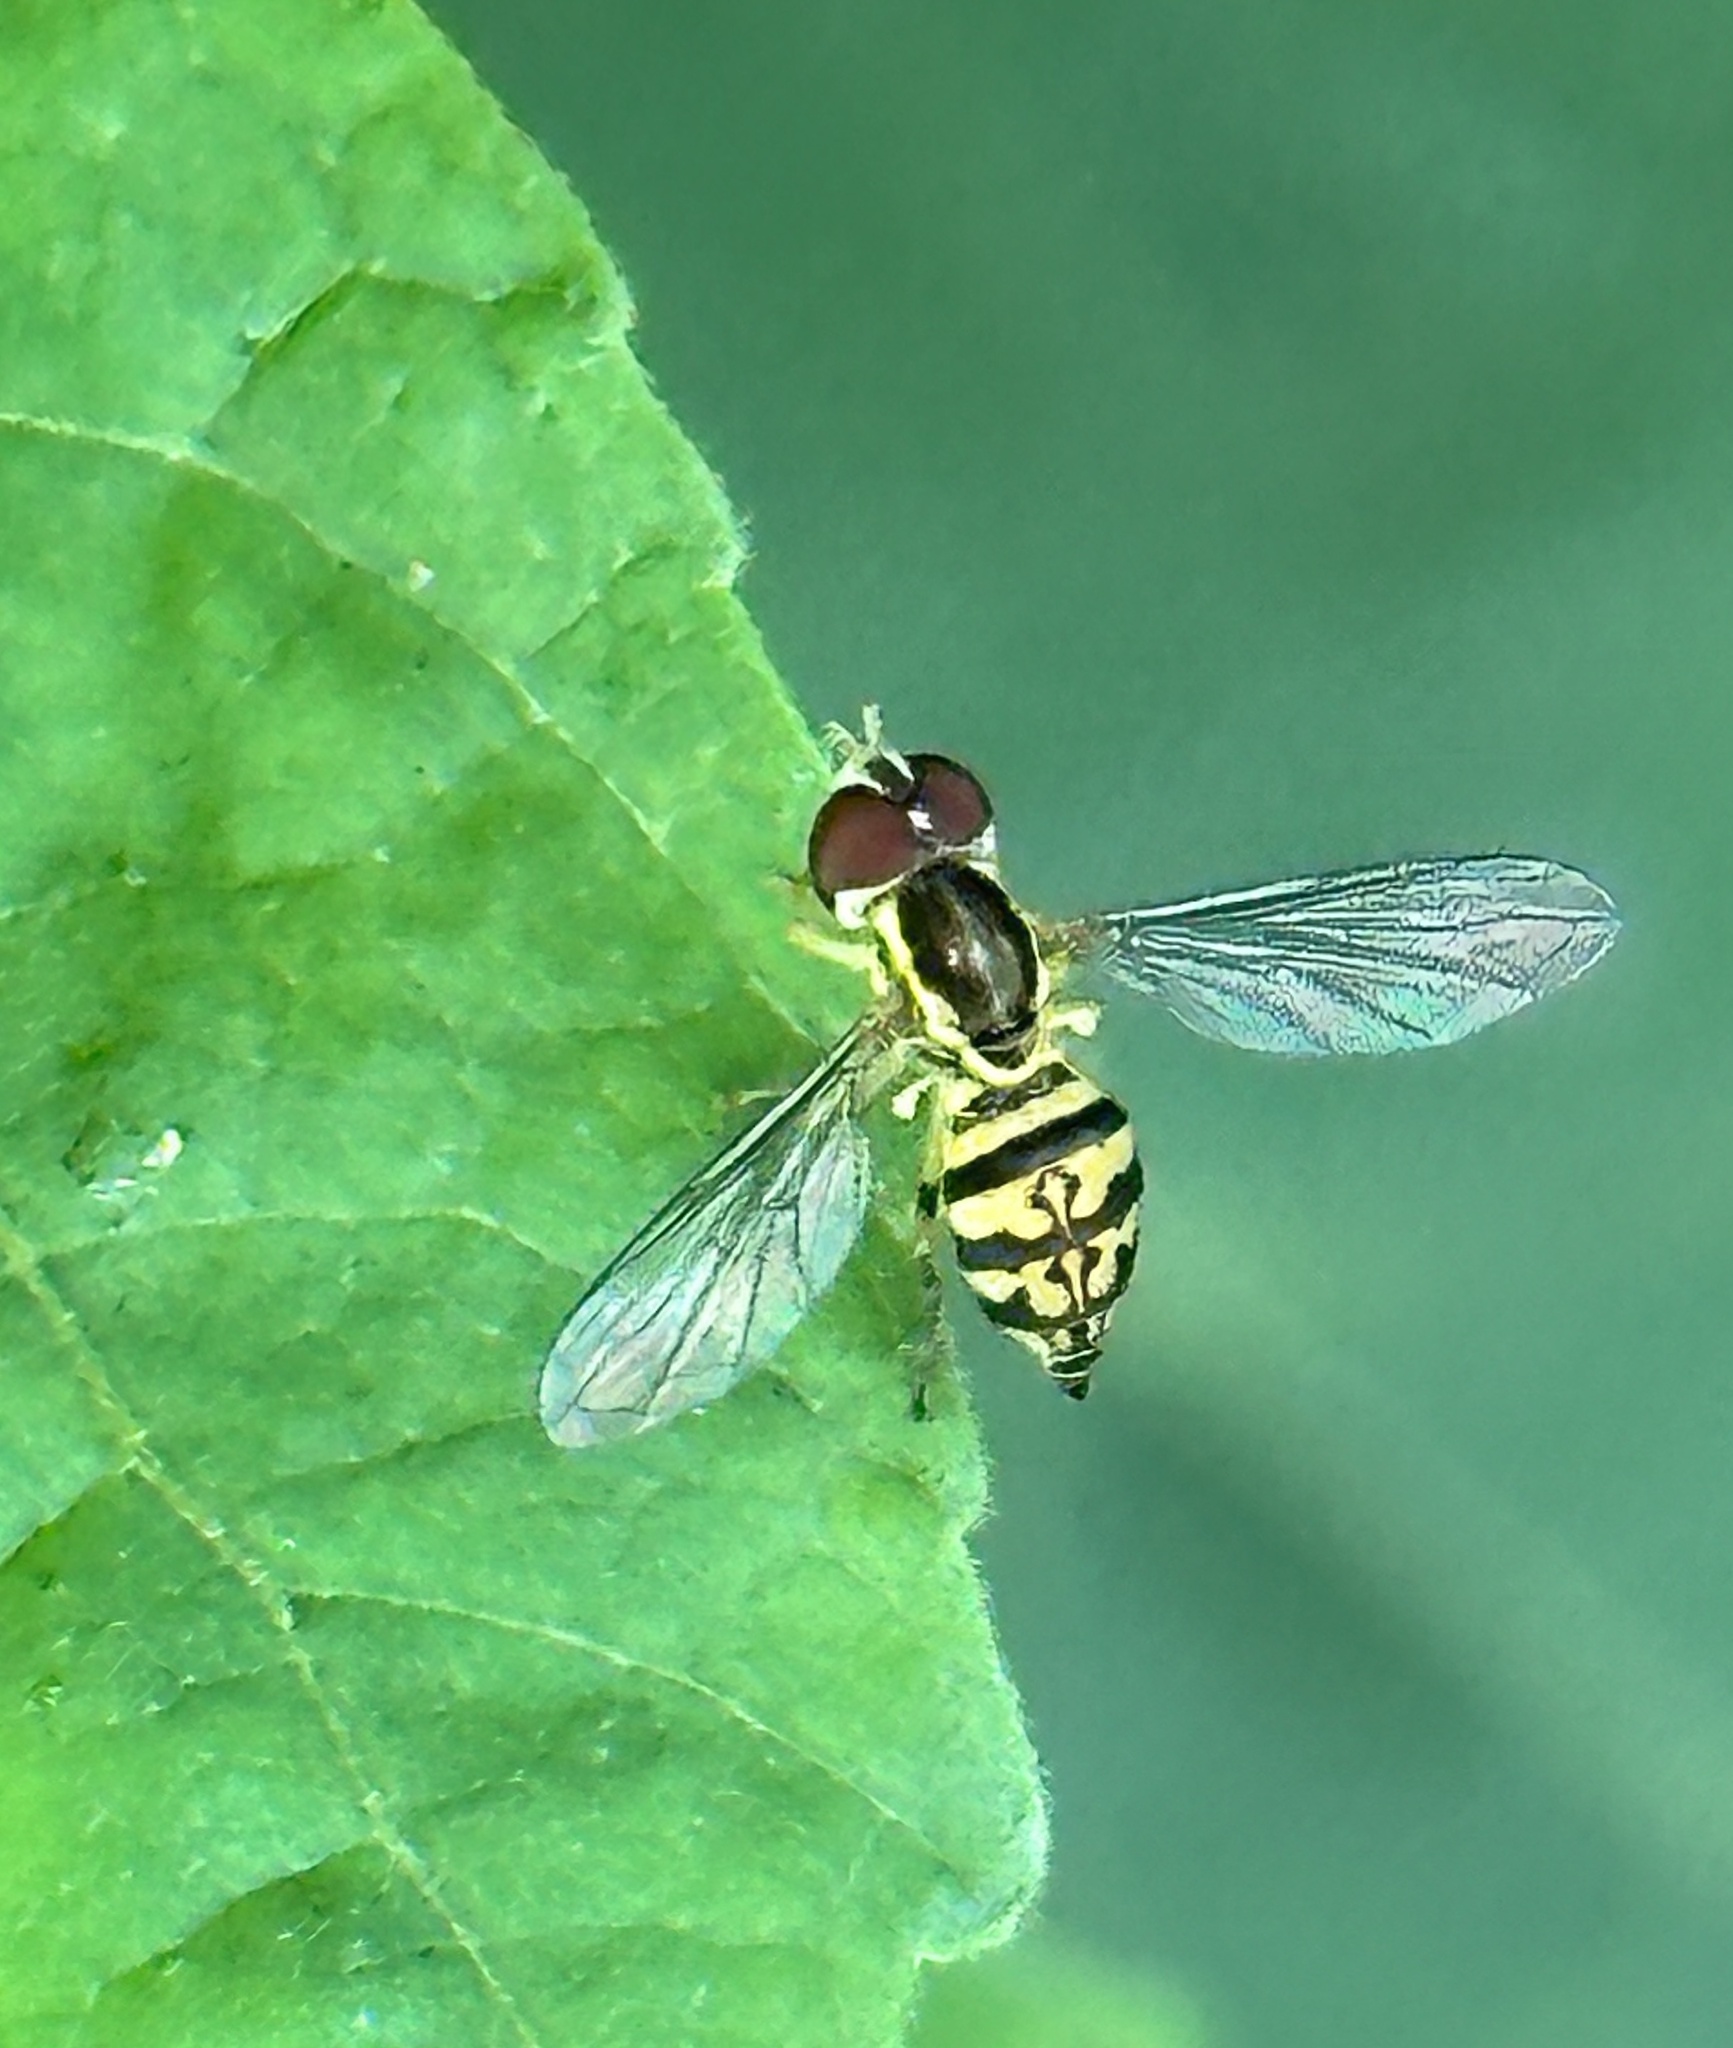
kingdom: Animalia
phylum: Arthropoda
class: Insecta
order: Diptera
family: Syrphidae
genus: Toxomerus
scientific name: Toxomerus geminatus
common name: Eastern calligrapher
